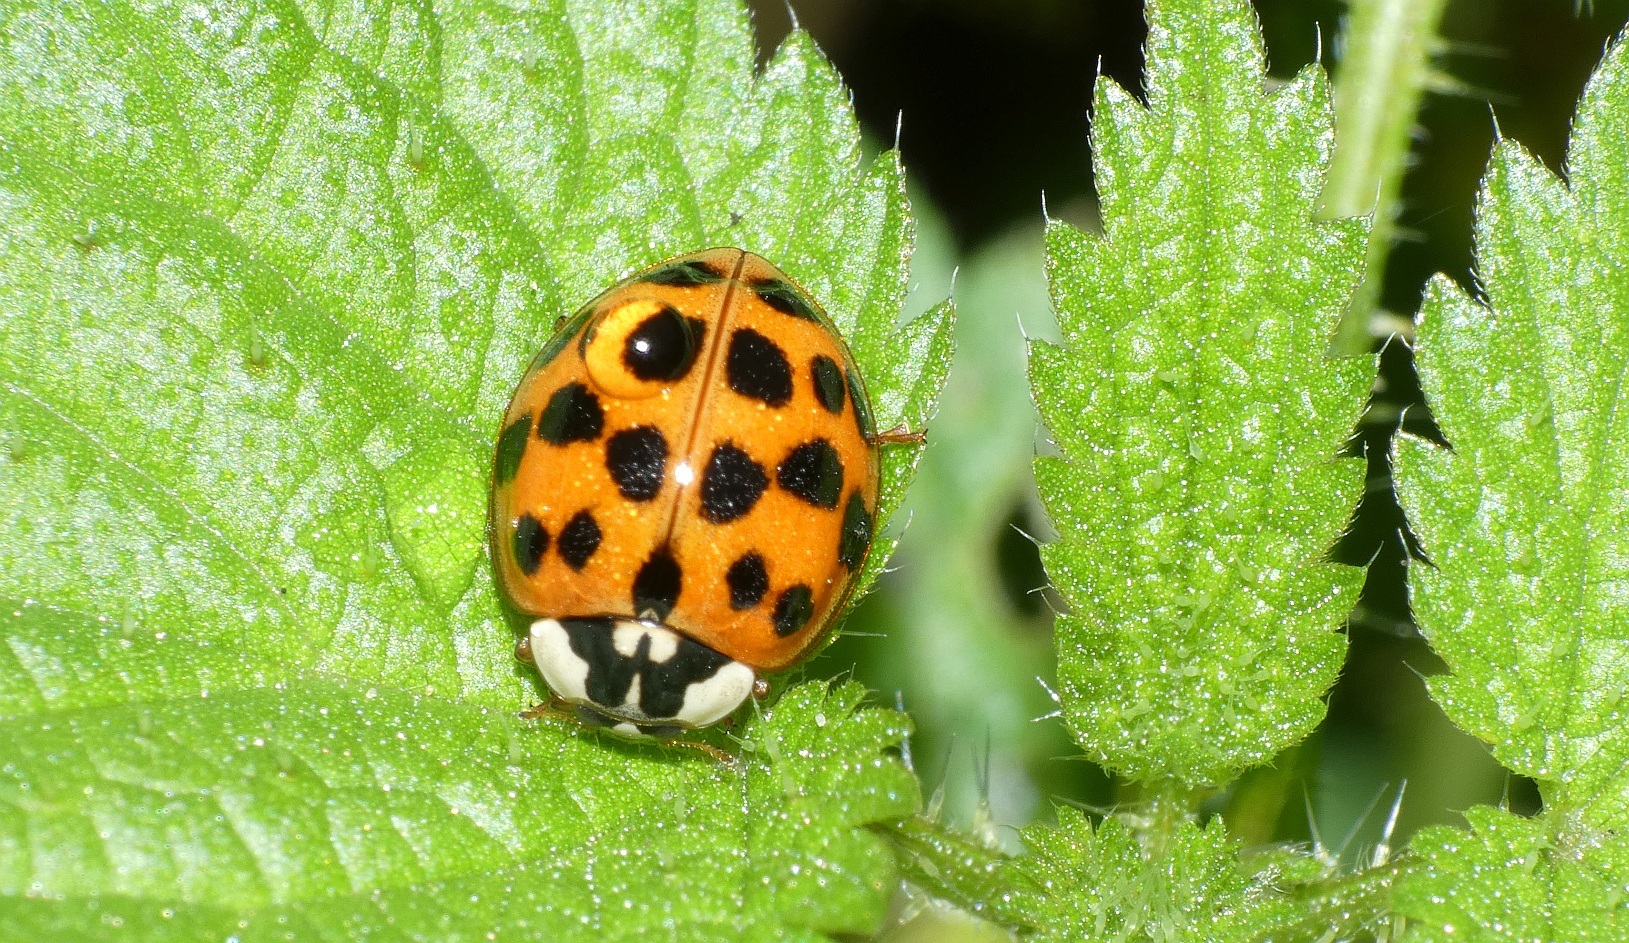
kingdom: Animalia
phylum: Arthropoda
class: Insecta
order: Coleoptera
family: Coccinellidae
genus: Harmonia
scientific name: Harmonia axyridis
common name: Harlequin ladybird
